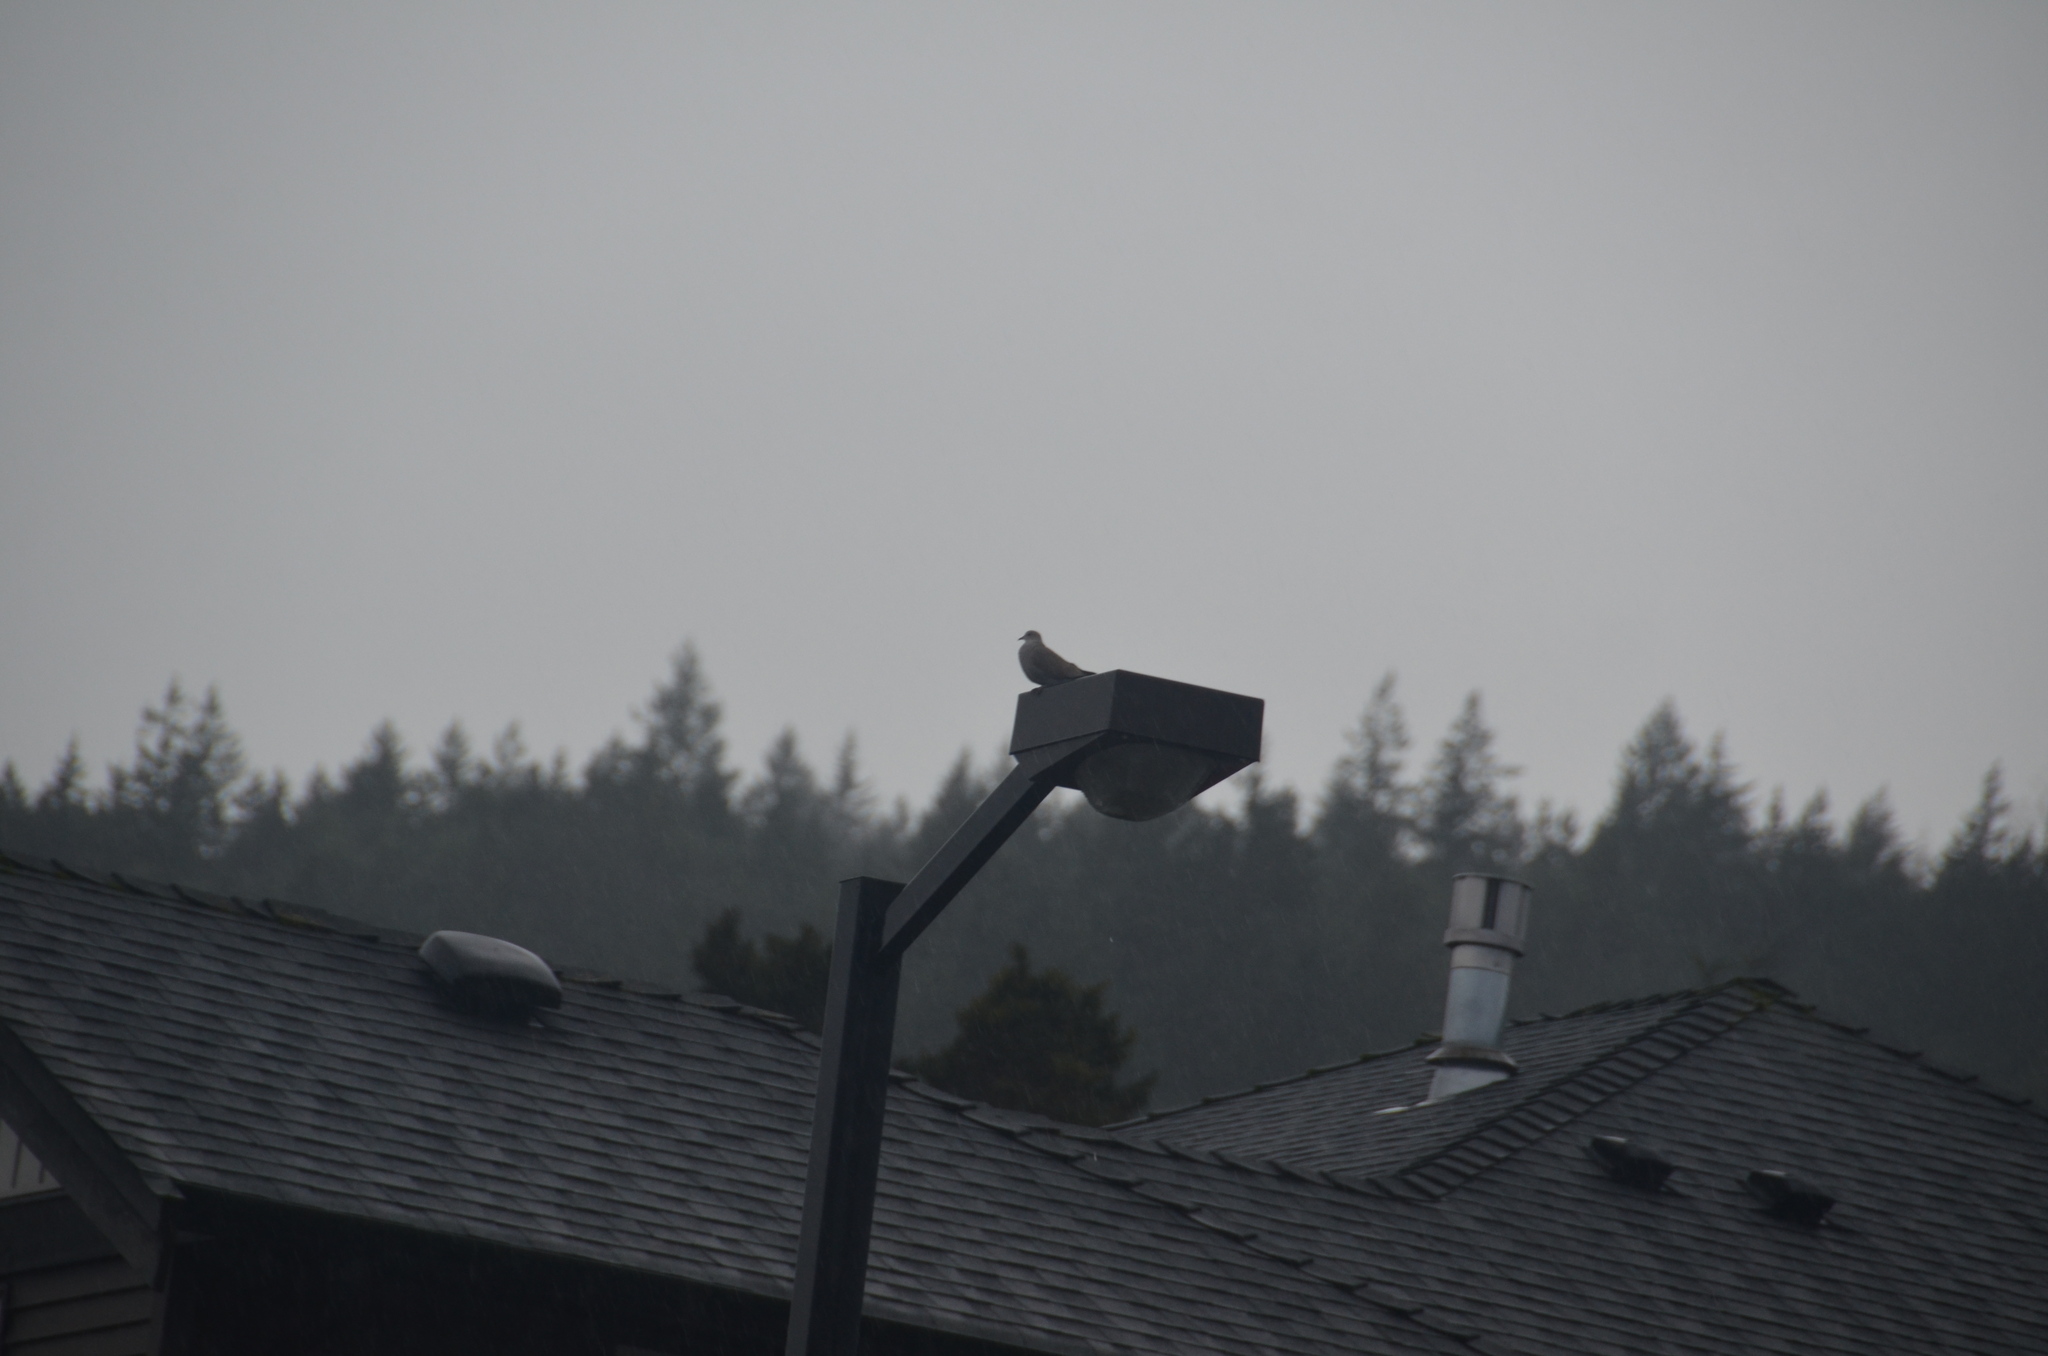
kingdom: Animalia
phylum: Chordata
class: Aves
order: Columbiformes
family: Columbidae
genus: Streptopelia
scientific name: Streptopelia decaocto
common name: Eurasian collared dove
